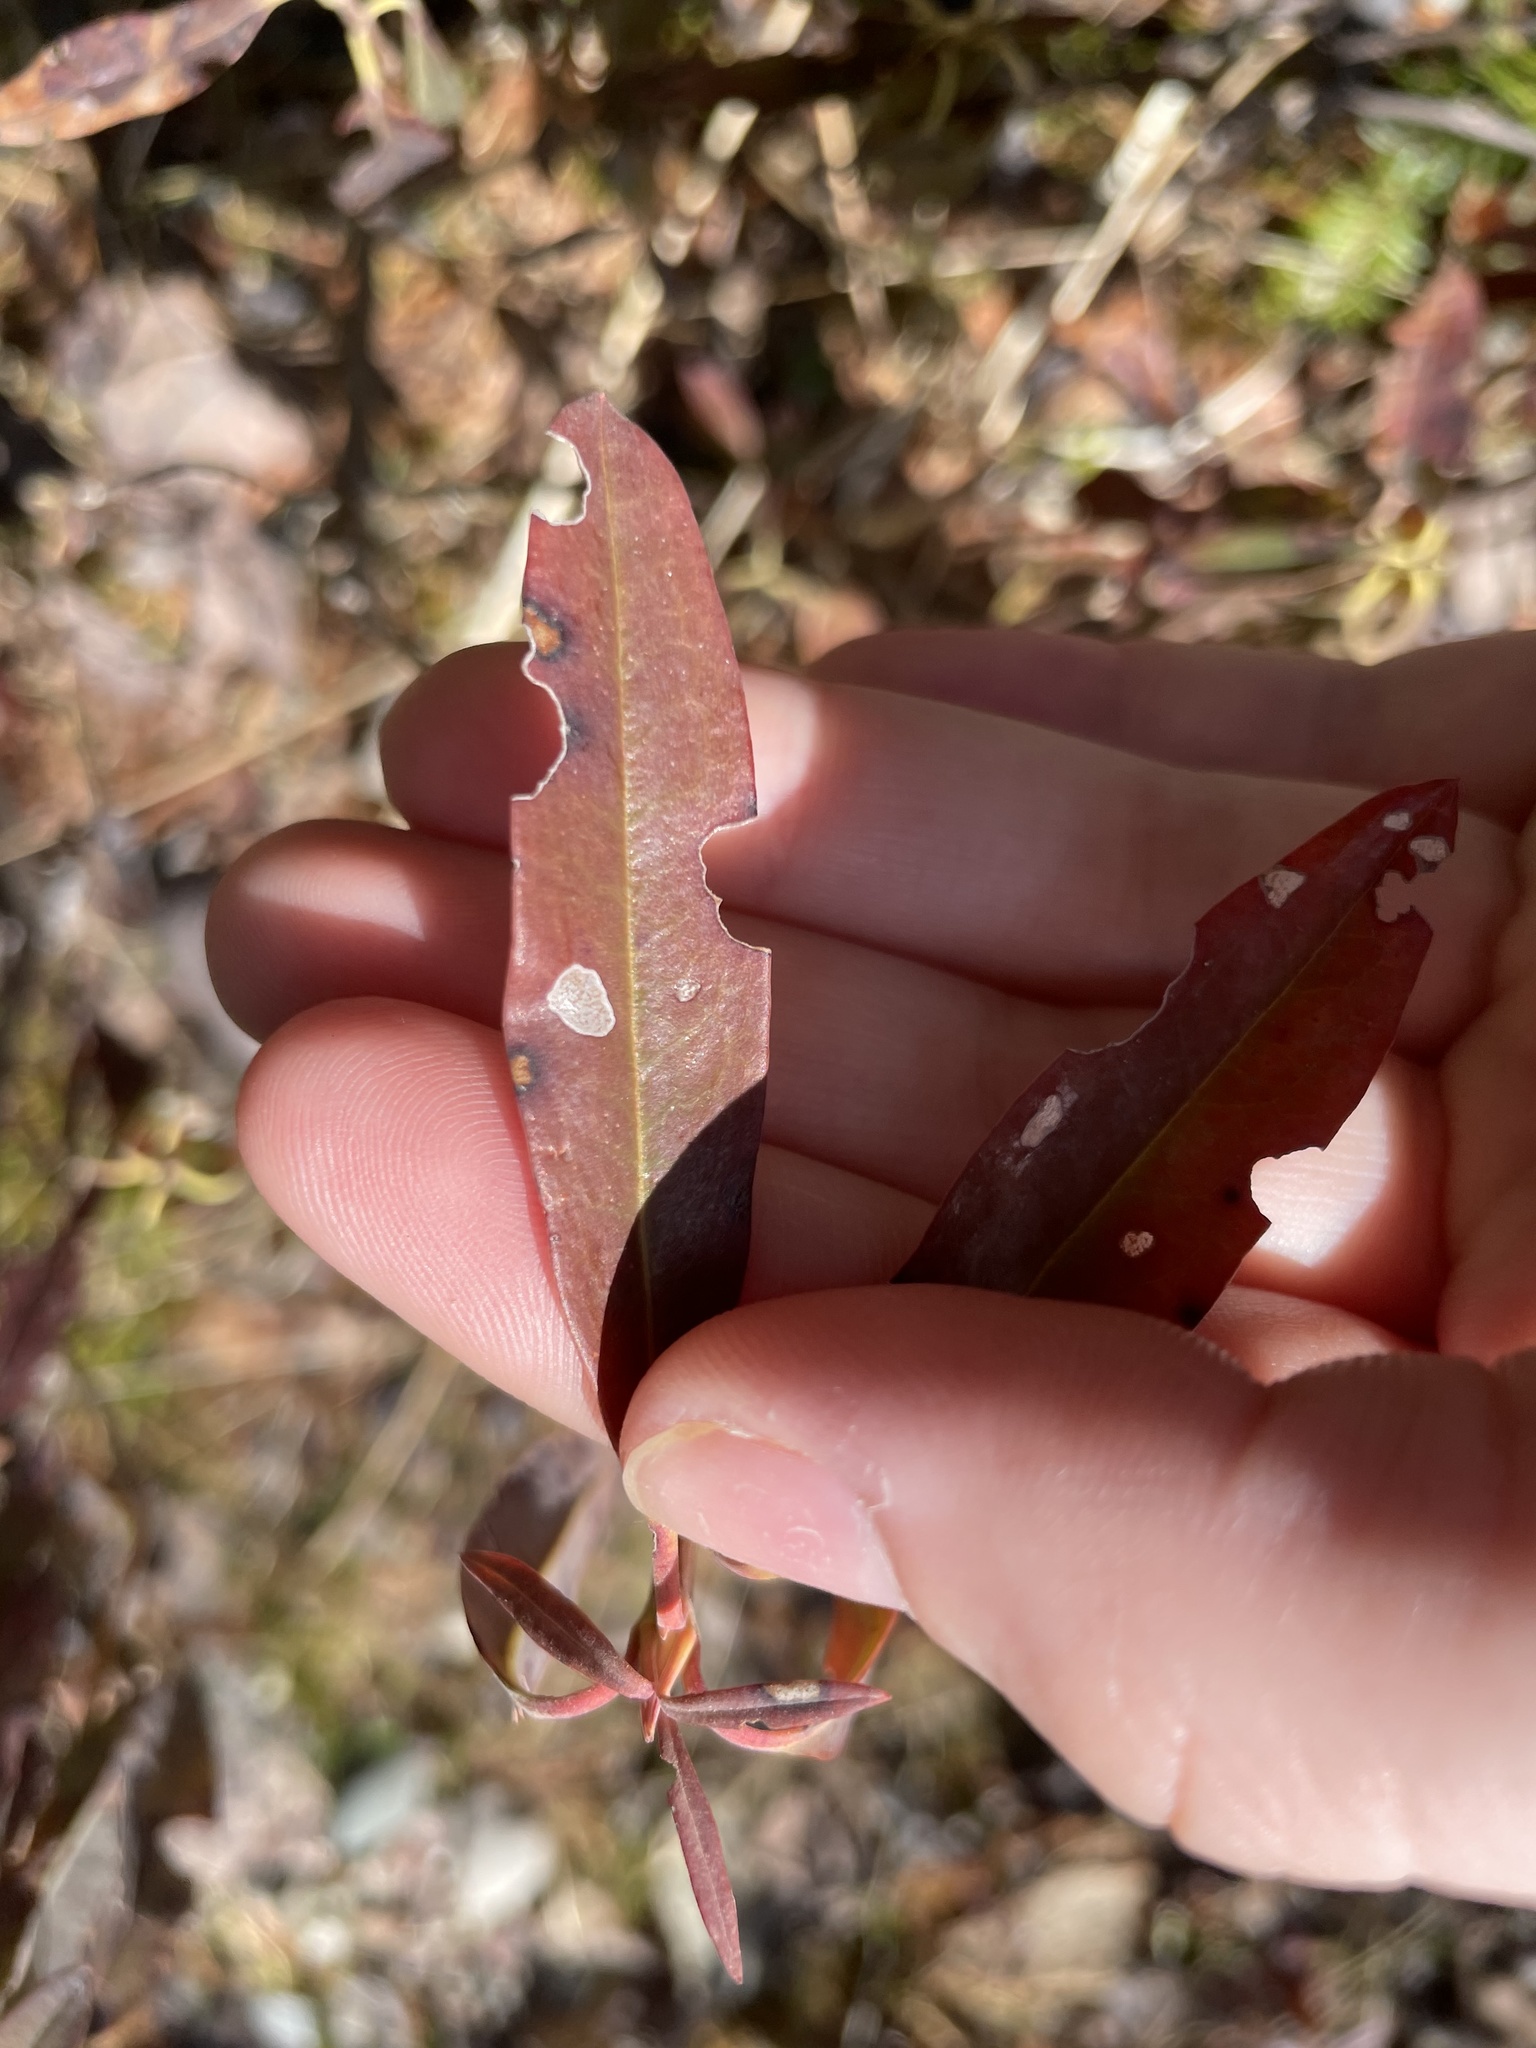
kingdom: Plantae
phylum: Tracheophyta
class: Magnoliopsida
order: Ericales
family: Ericaceae
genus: Kalmia
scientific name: Kalmia angustifolia
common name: Sheep-laurel
